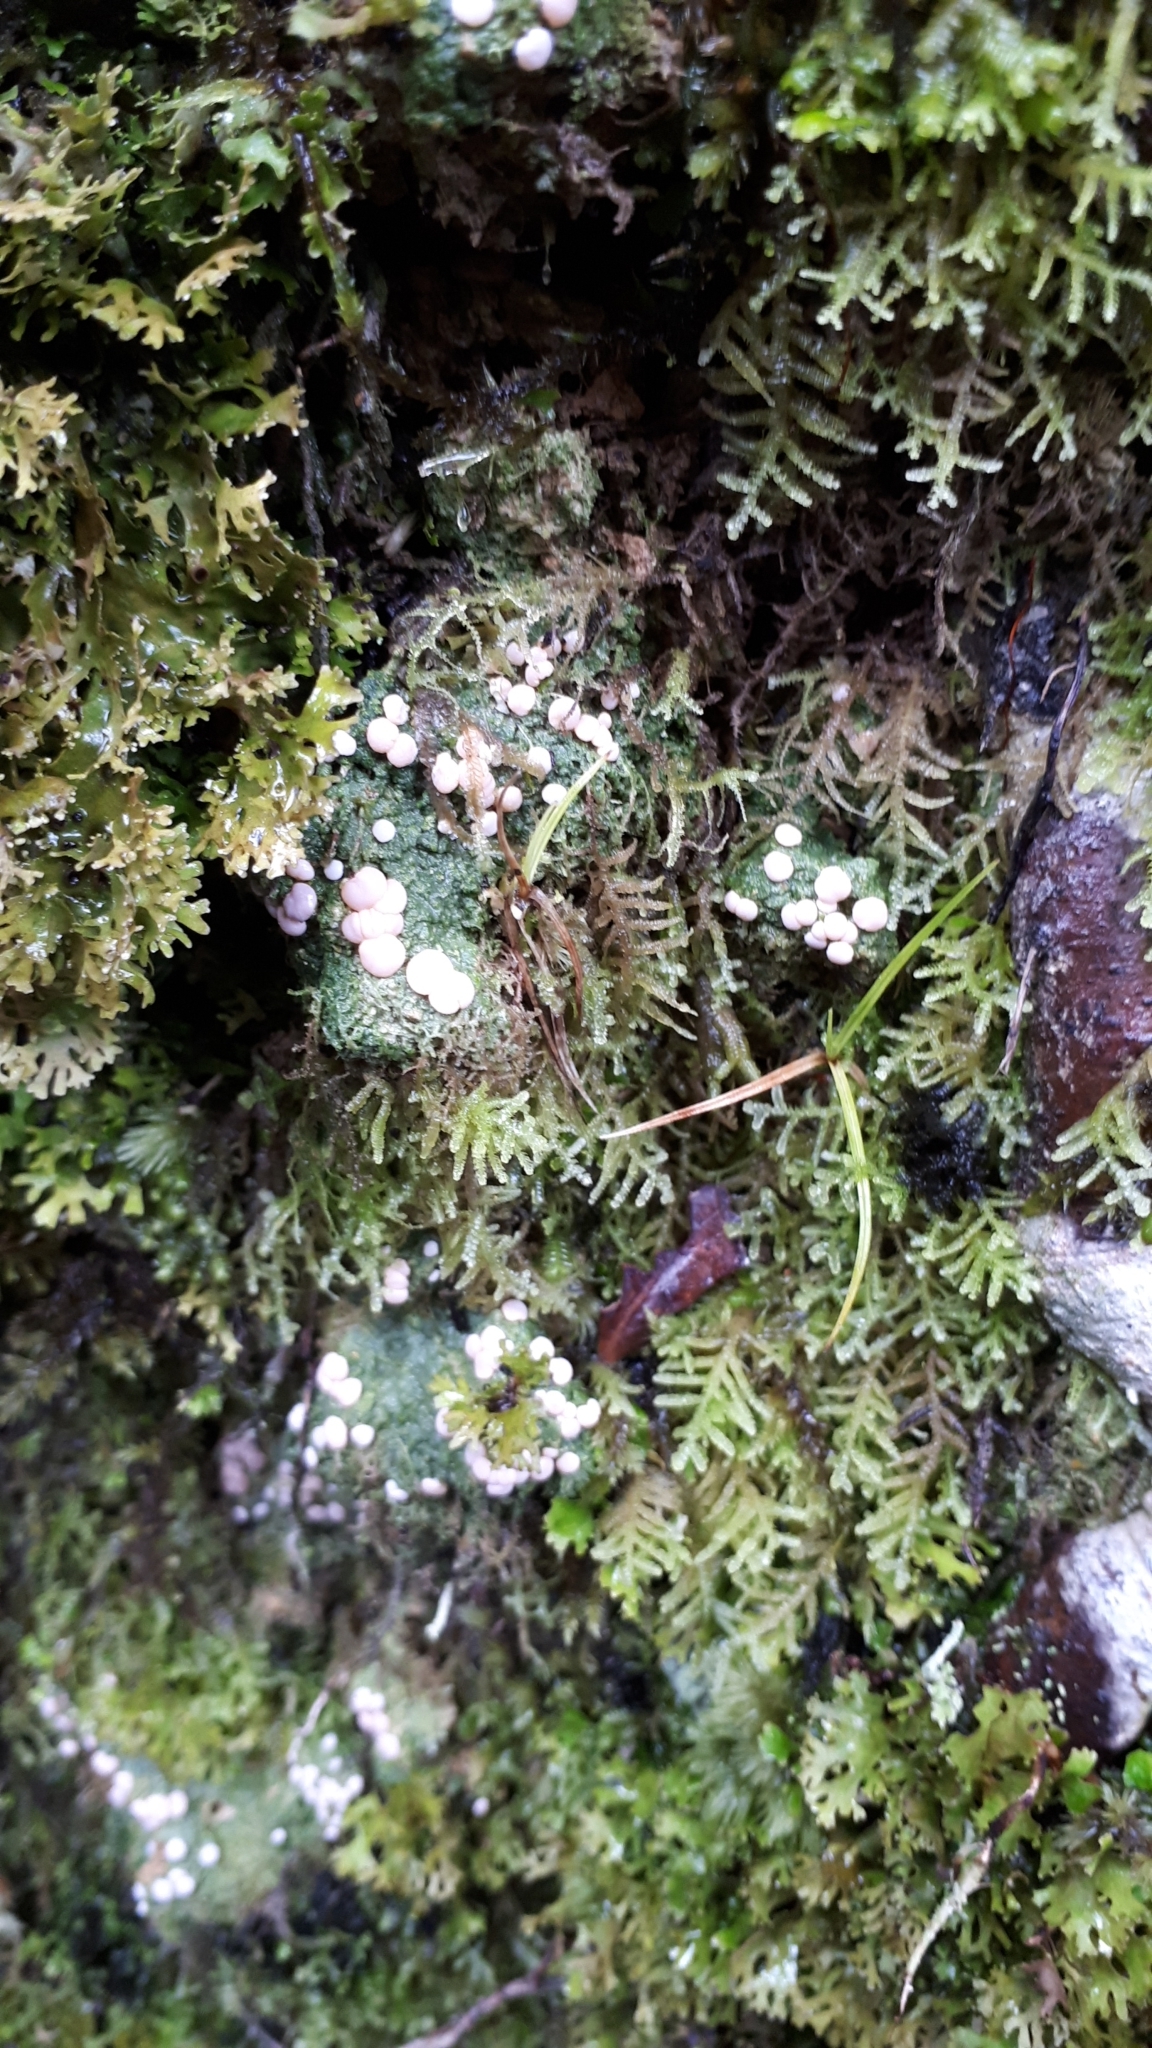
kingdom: Fungi
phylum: Ascomycota
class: Lecanoromycetes
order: Pertusariales
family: Icmadophilaceae
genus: Dibaeis
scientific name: Dibaeis absoluta
